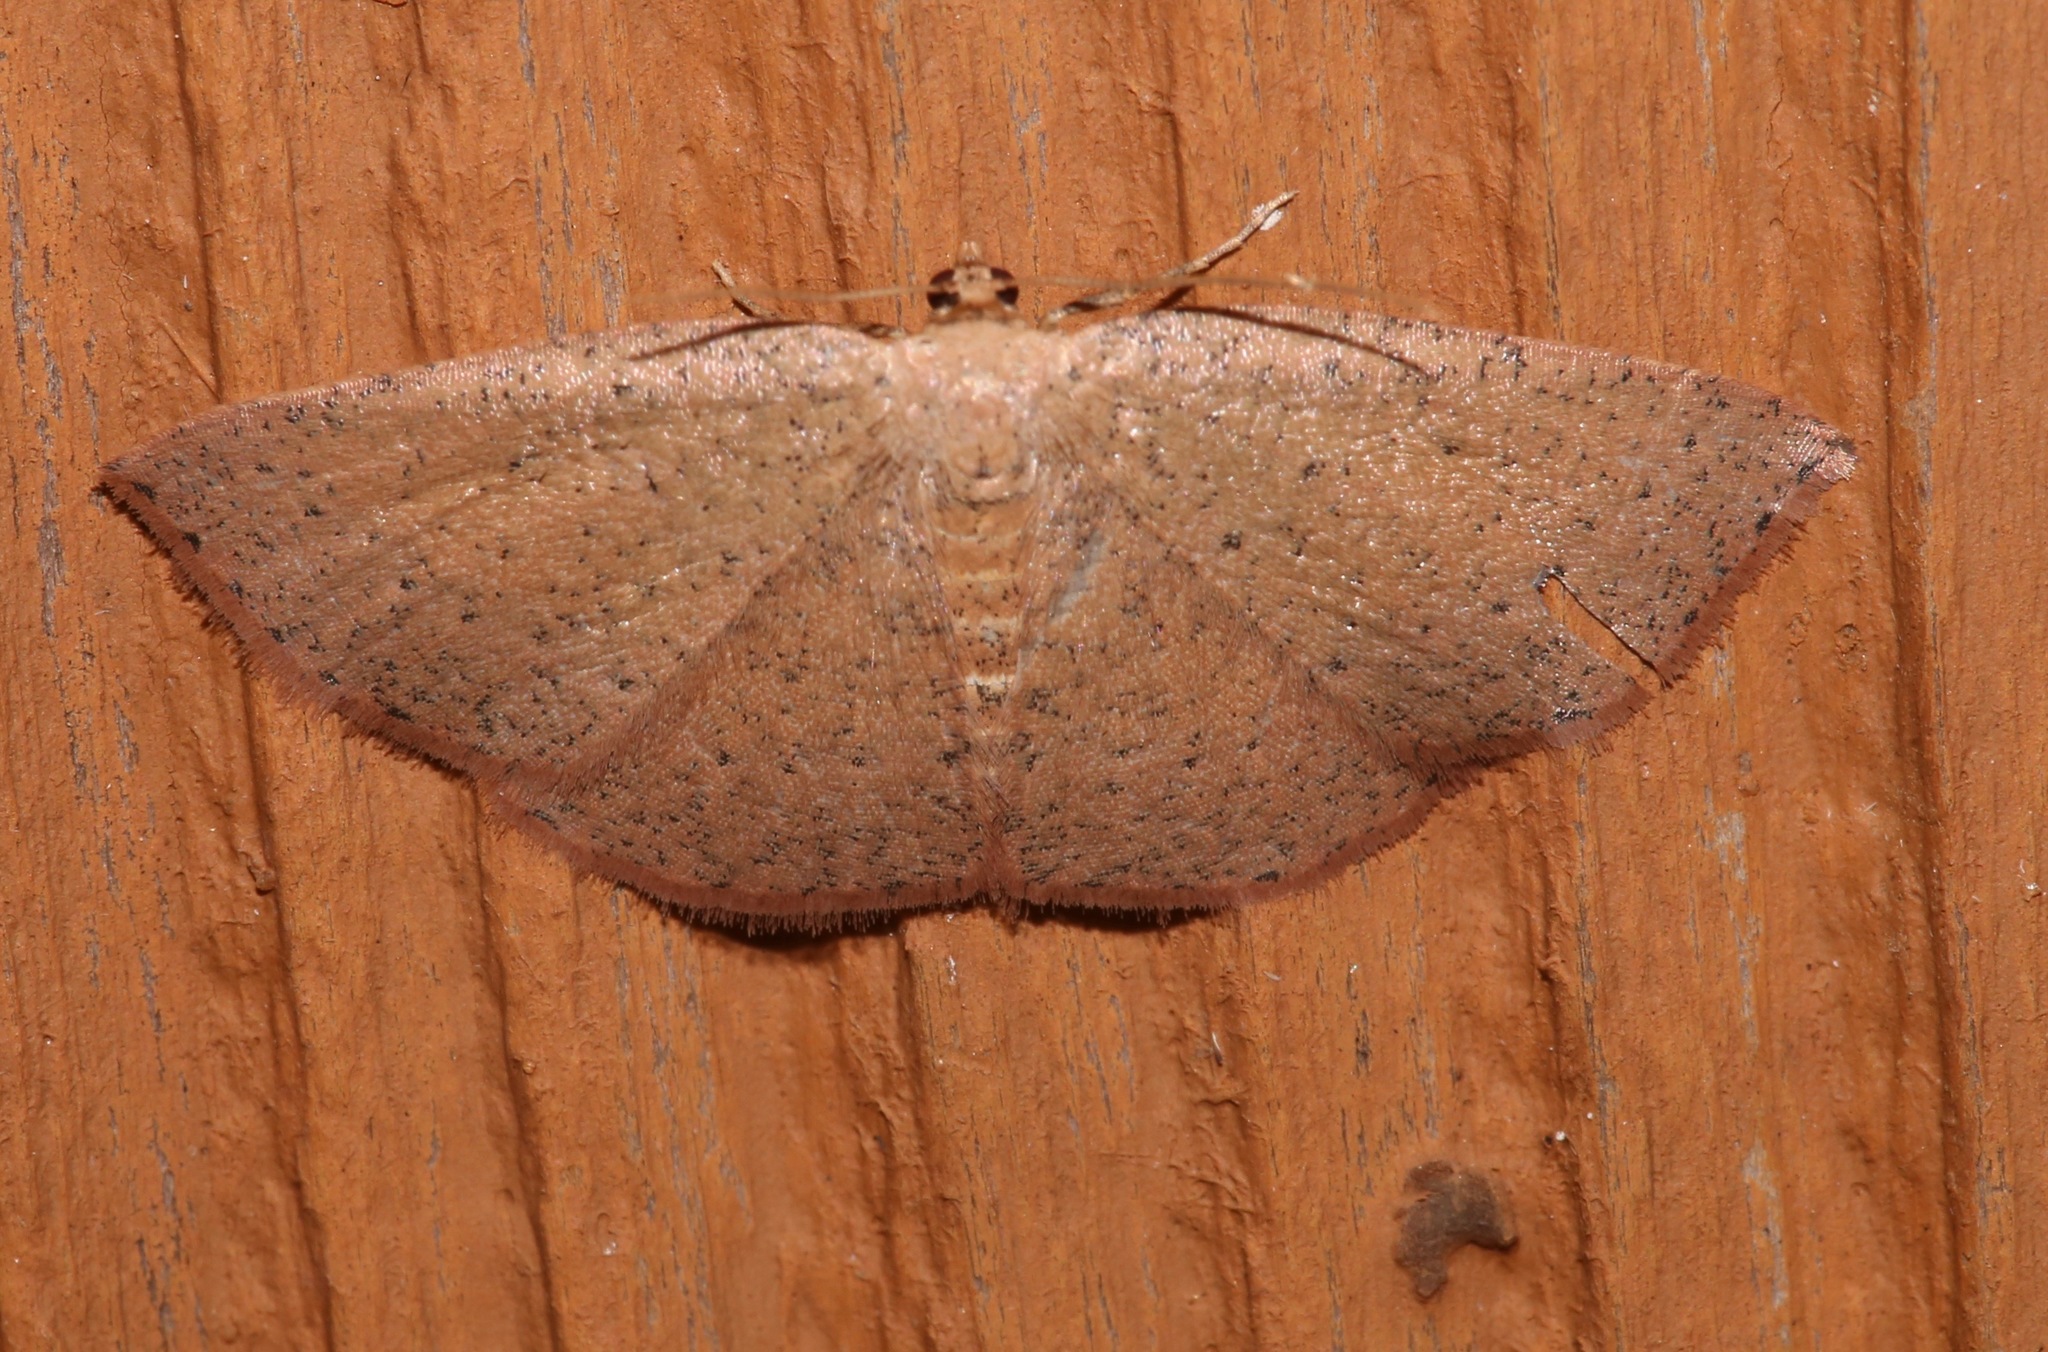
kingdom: Animalia
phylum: Arthropoda
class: Insecta
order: Lepidoptera
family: Geometridae
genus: Episemasia
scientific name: Episemasia solitaria
